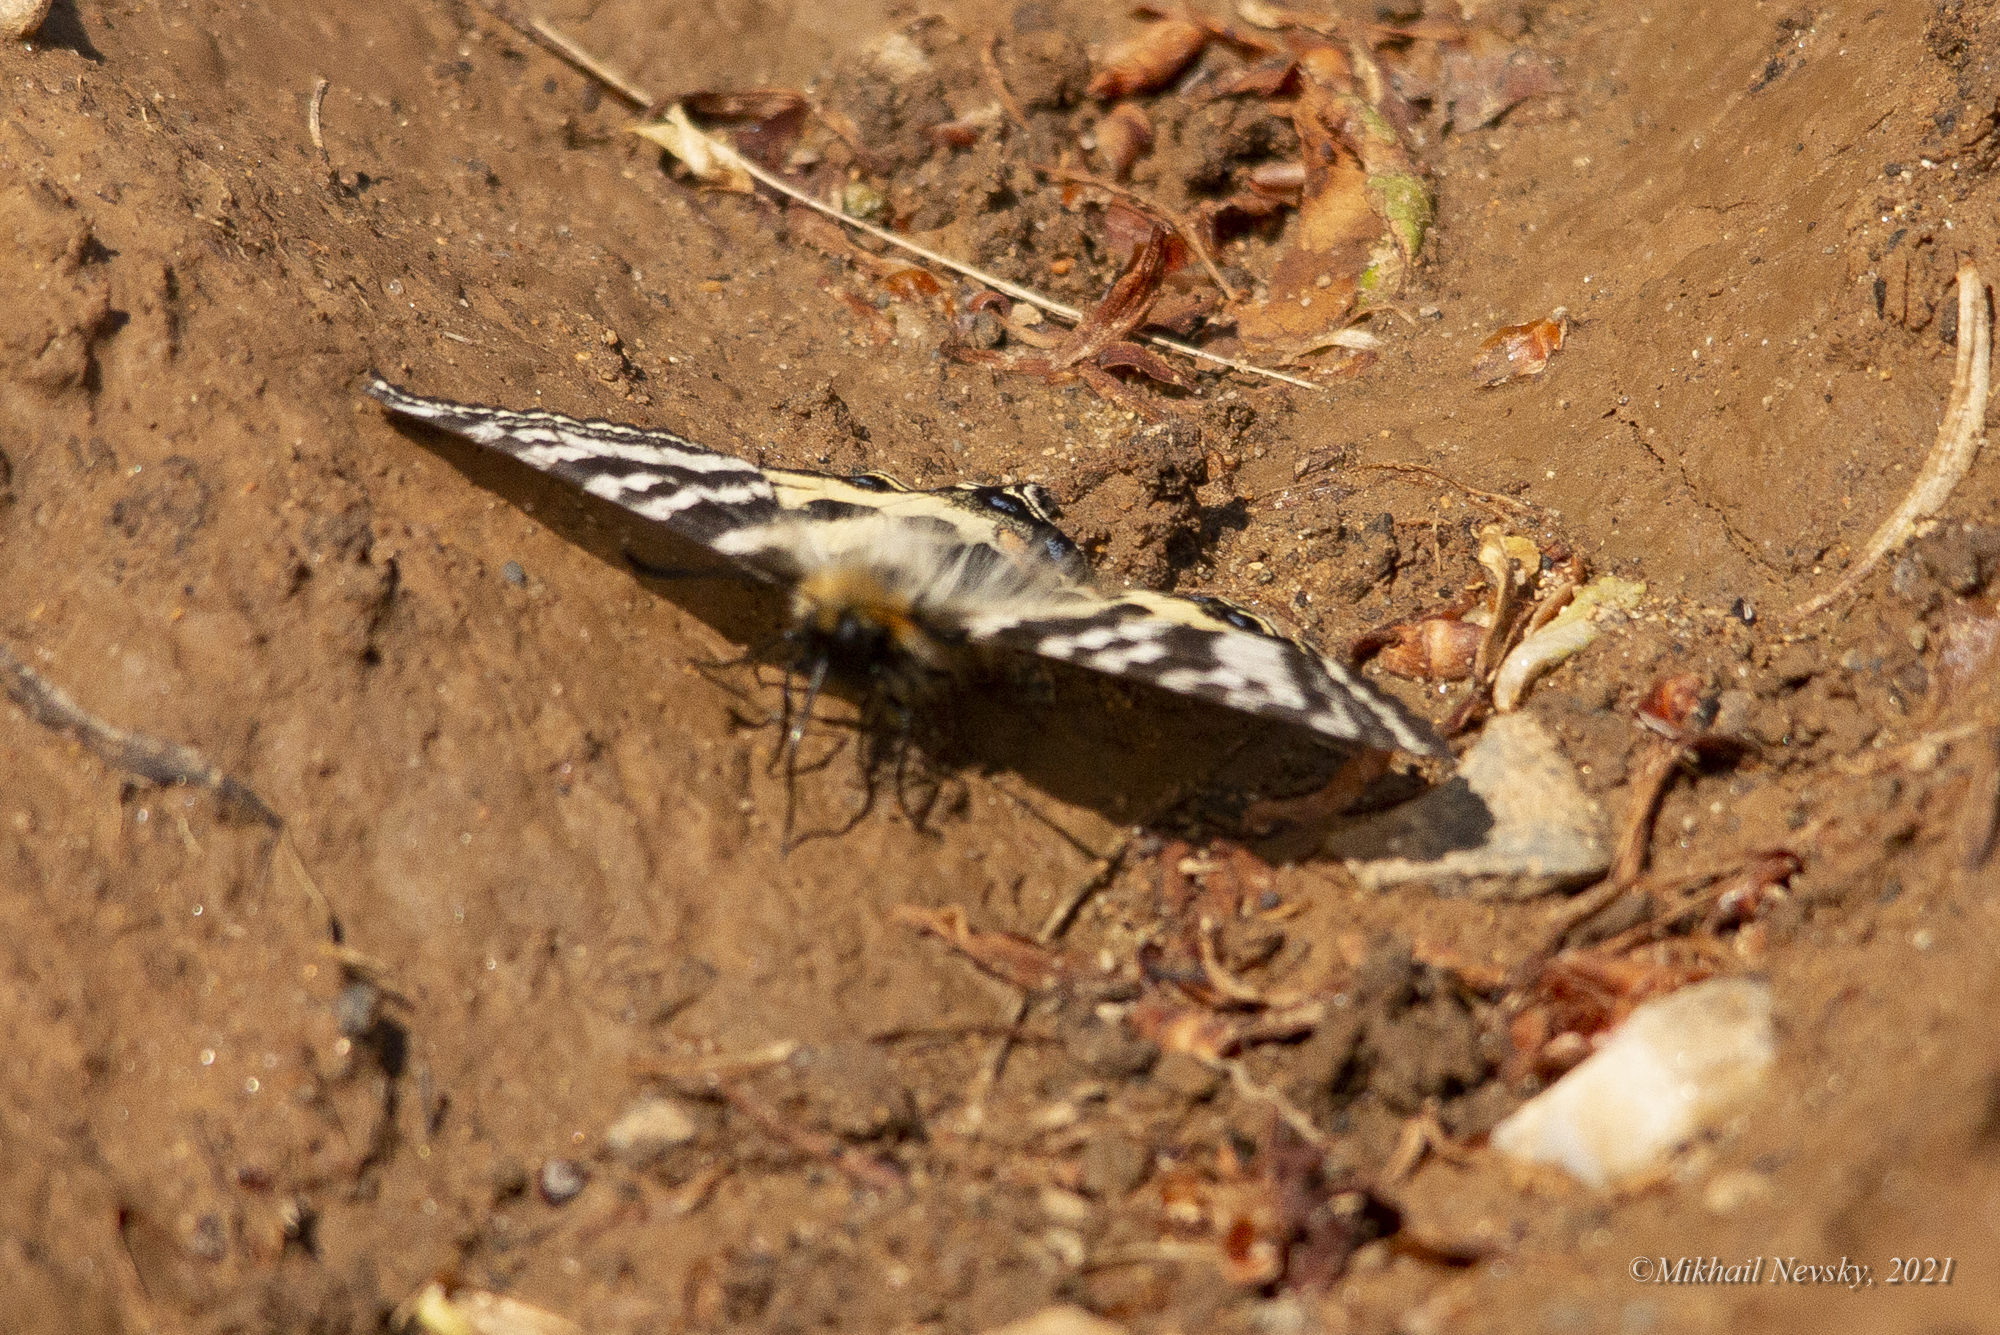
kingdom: Animalia
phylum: Arthropoda
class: Insecta
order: Lepidoptera
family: Papilionidae
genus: Luehdorfia
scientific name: Luehdorfia puziloi
